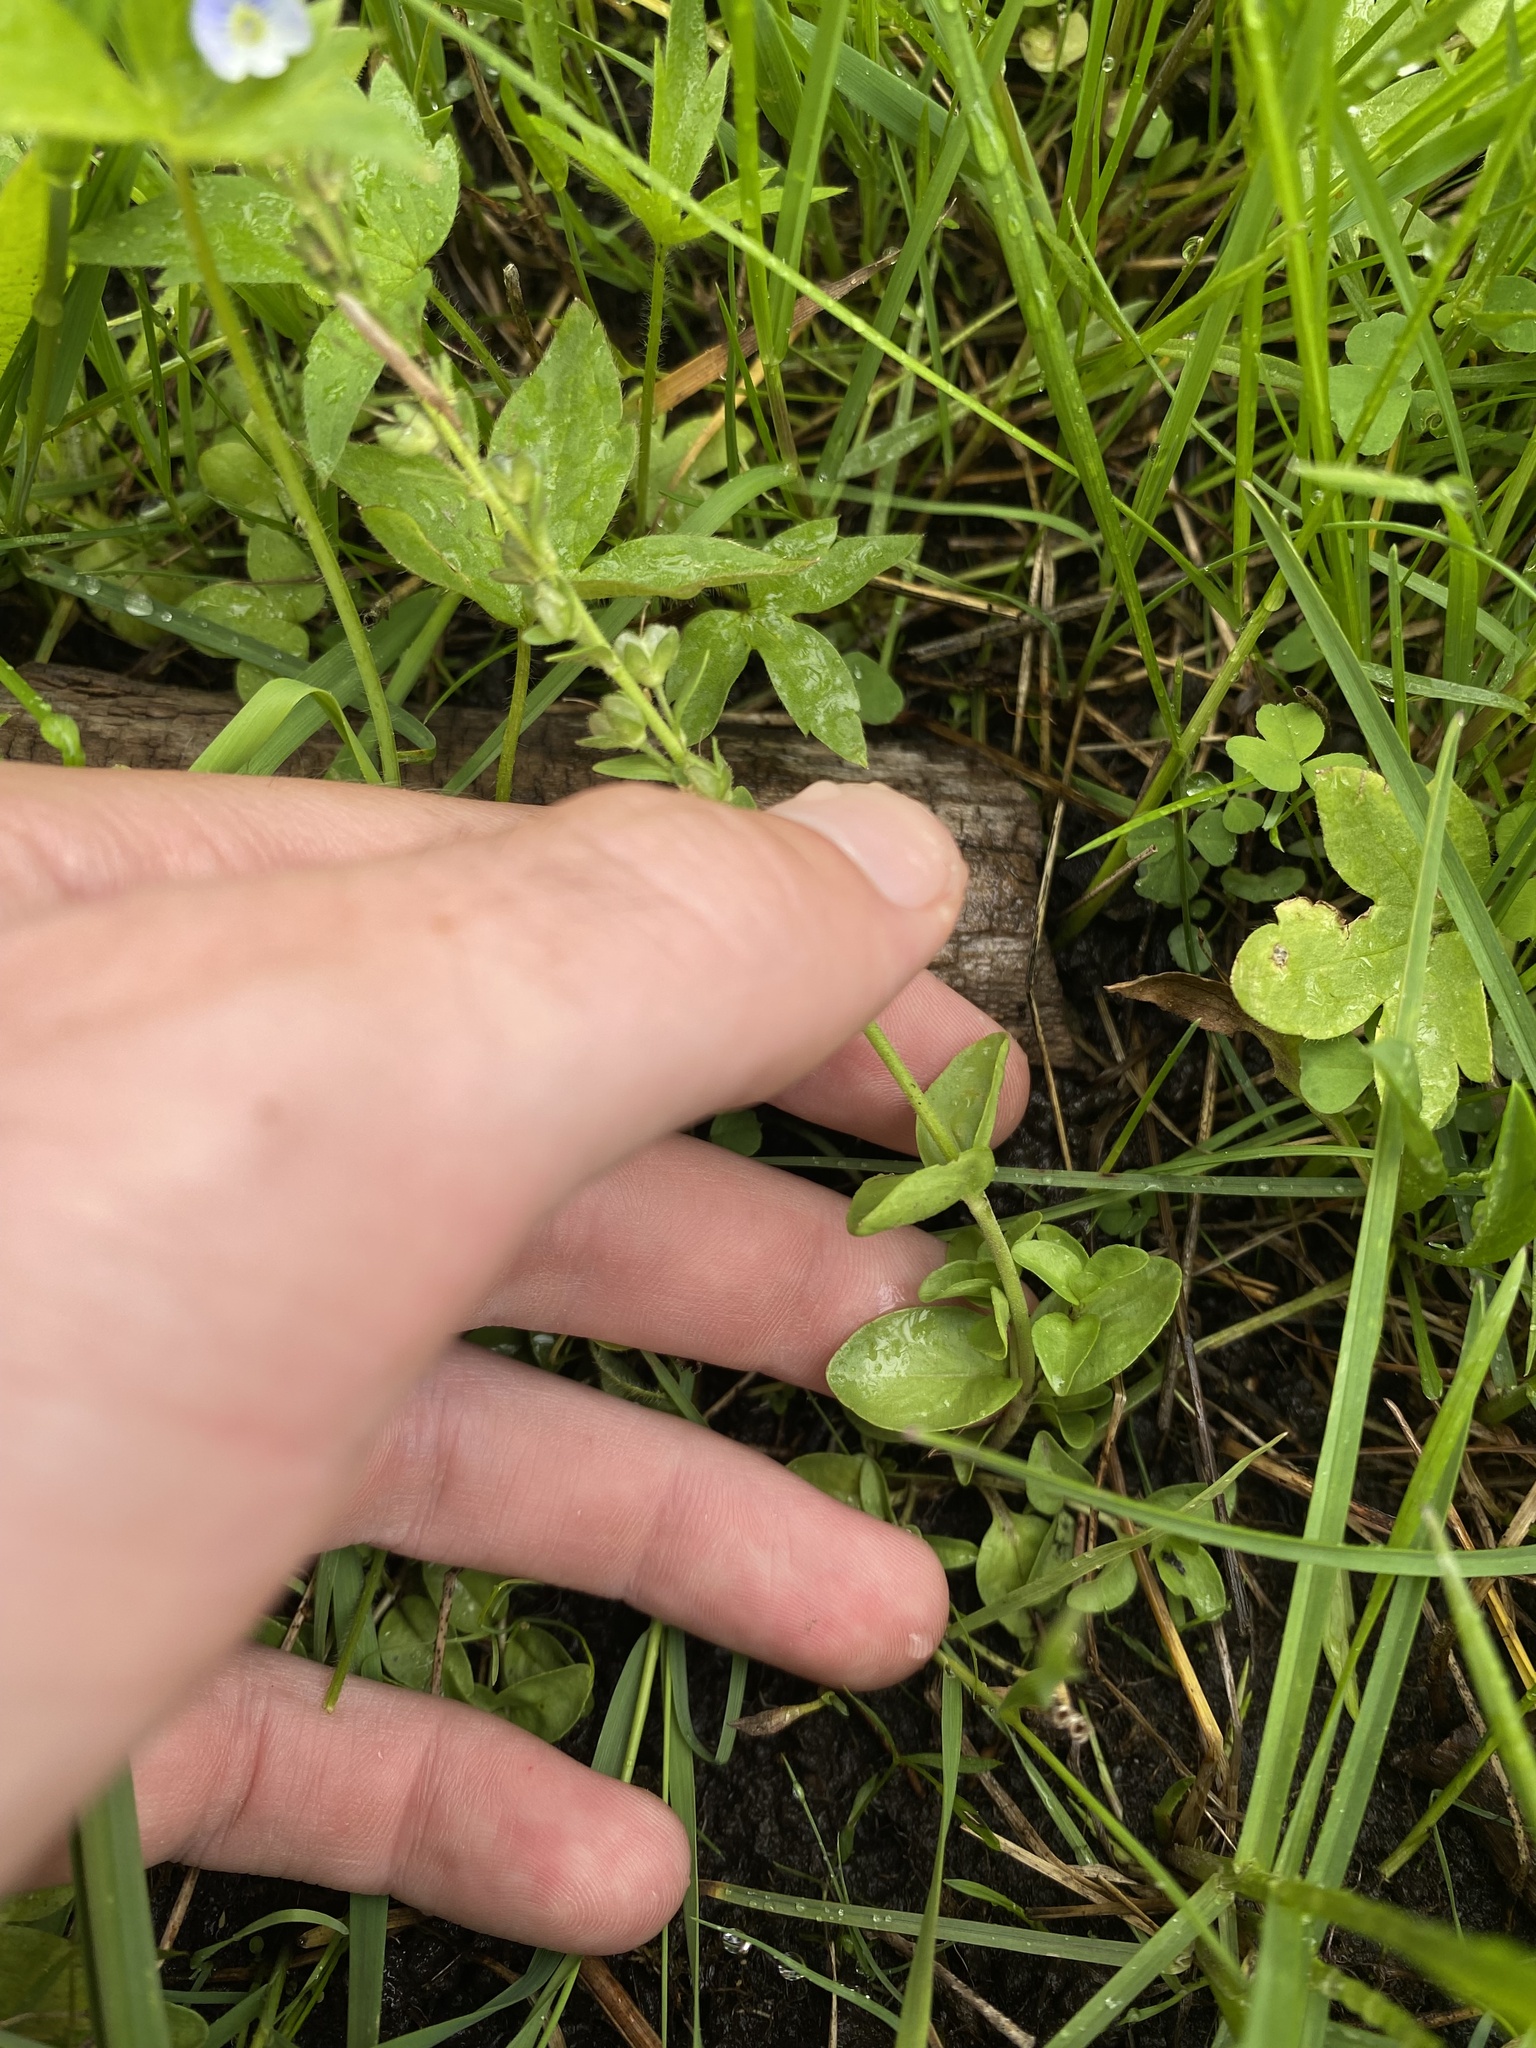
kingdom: Plantae
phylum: Tracheophyta
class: Magnoliopsida
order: Lamiales
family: Plantaginaceae
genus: Veronica
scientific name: Veronica serpyllifolia
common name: Thyme-leaved speedwell
